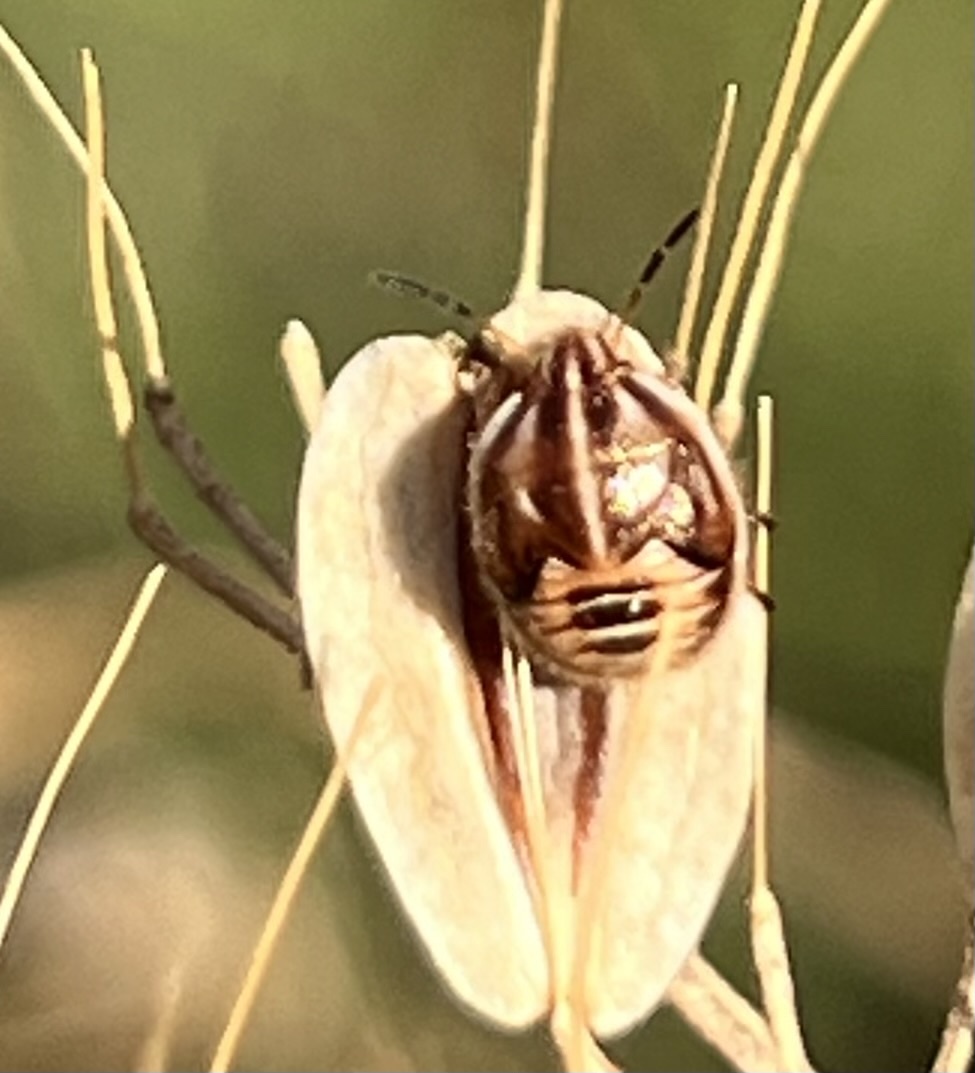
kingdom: Animalia
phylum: Arthropoda
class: Insecta
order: Hemiptera
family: Pentatomidae
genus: Trichopepla
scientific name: Trichopepla semivittata
